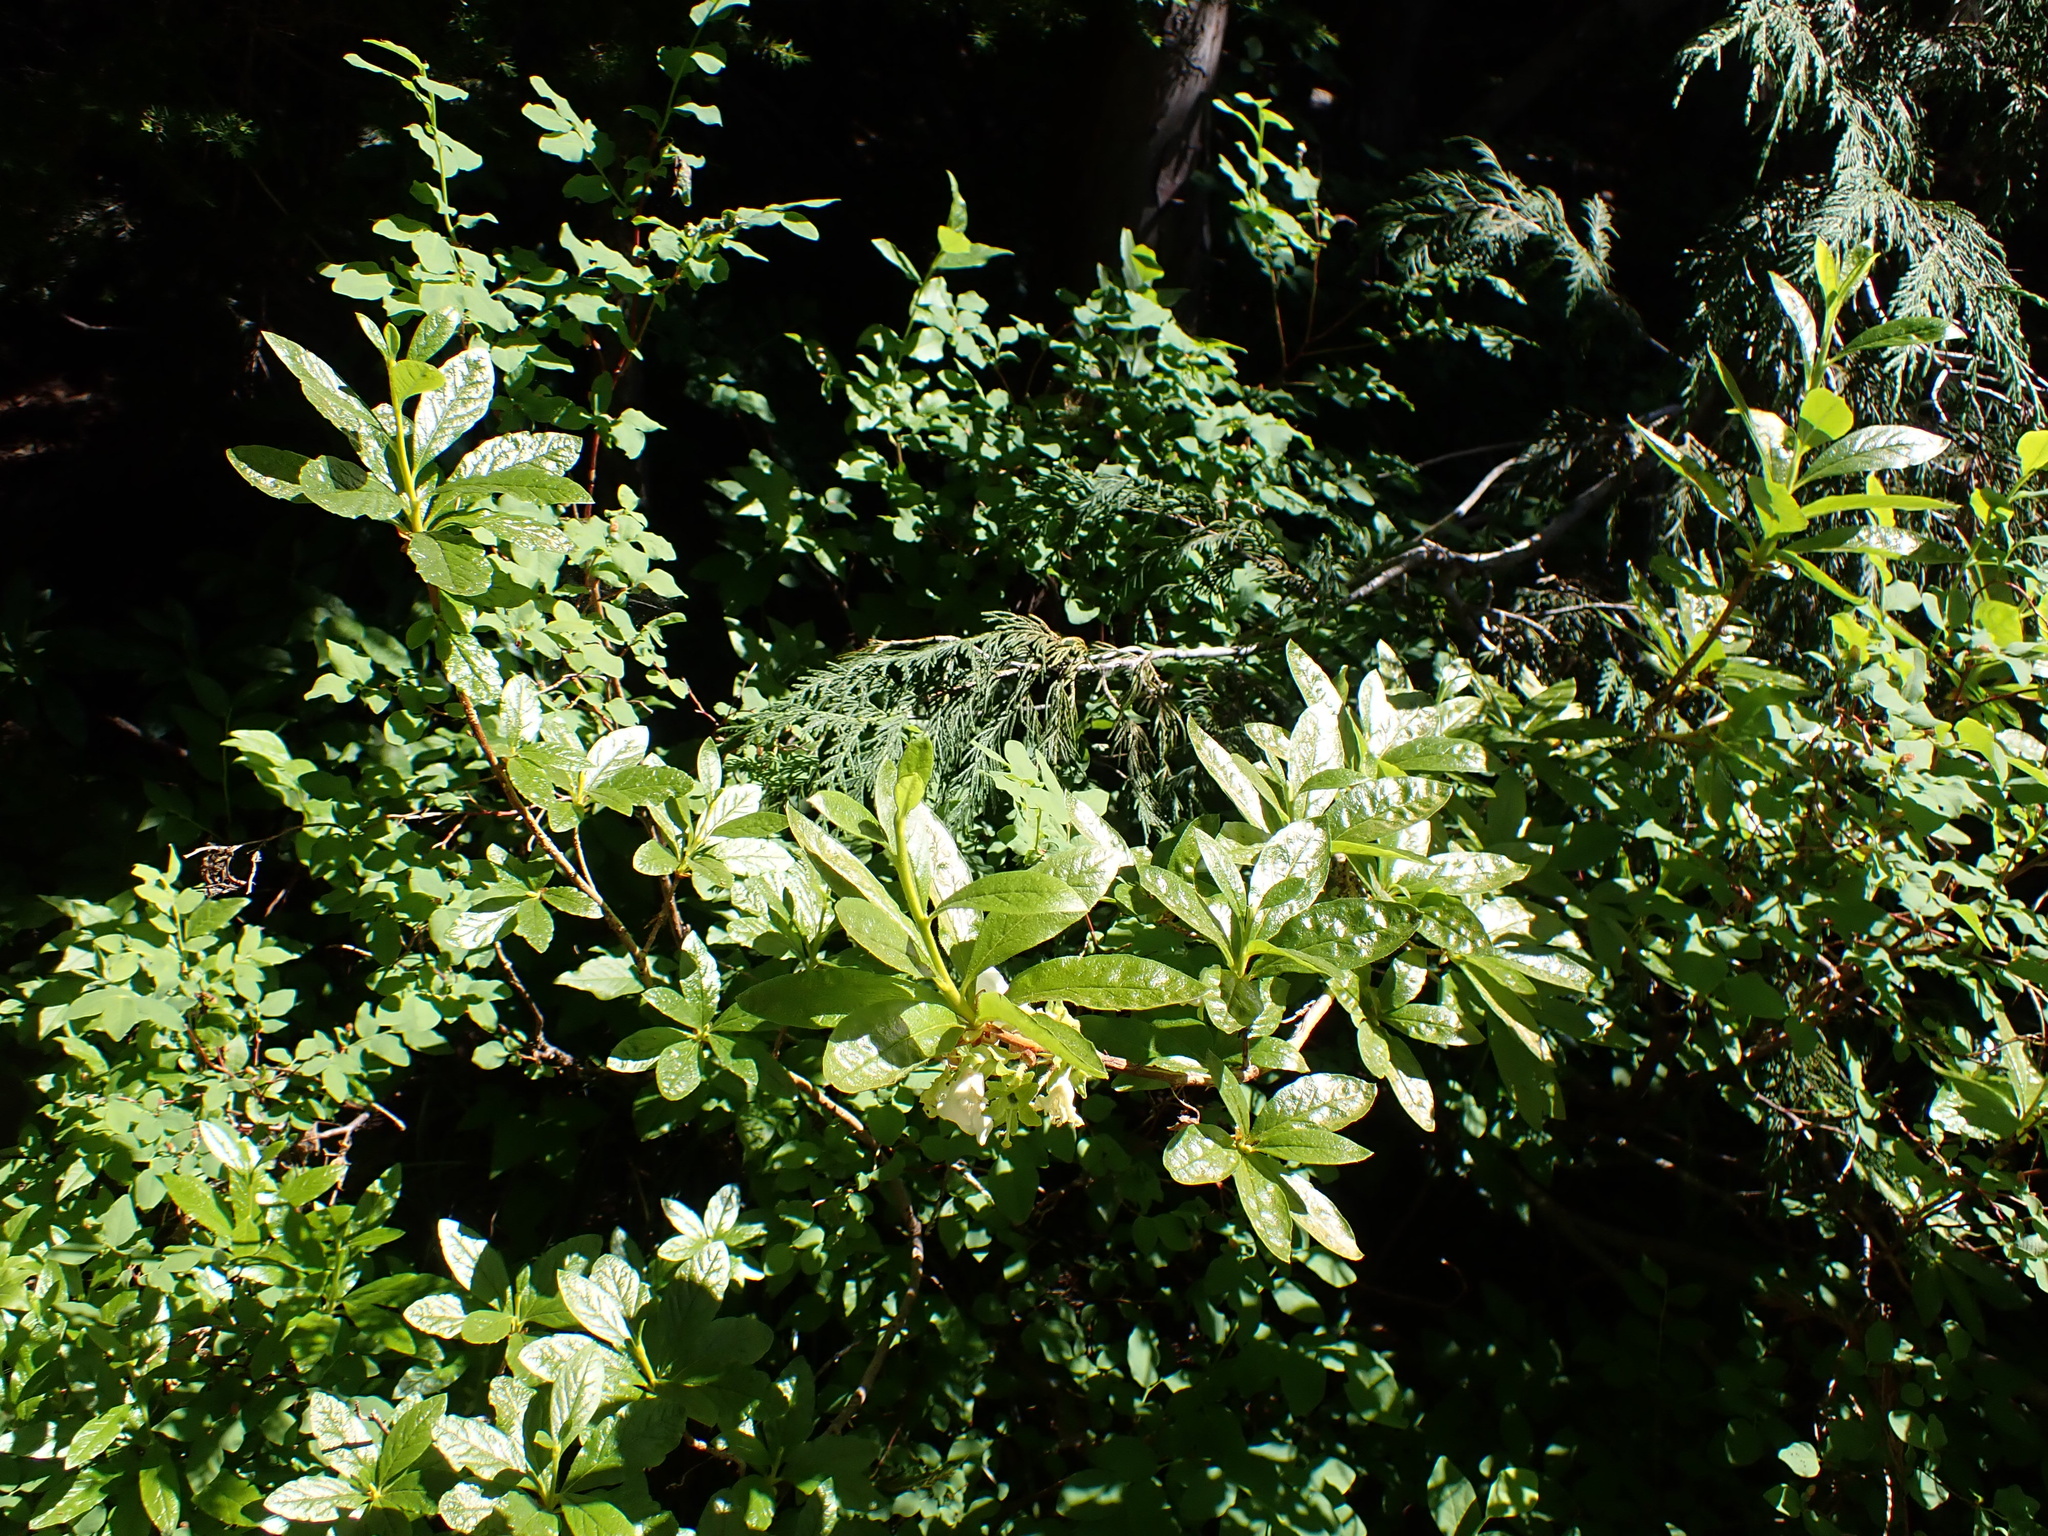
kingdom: Plantae
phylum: Tracheophyta
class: Magnoliopsida
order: Ericales
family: Ericaceae
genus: Rhododendron
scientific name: Rhododendron albiflorum
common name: White rhododendron
